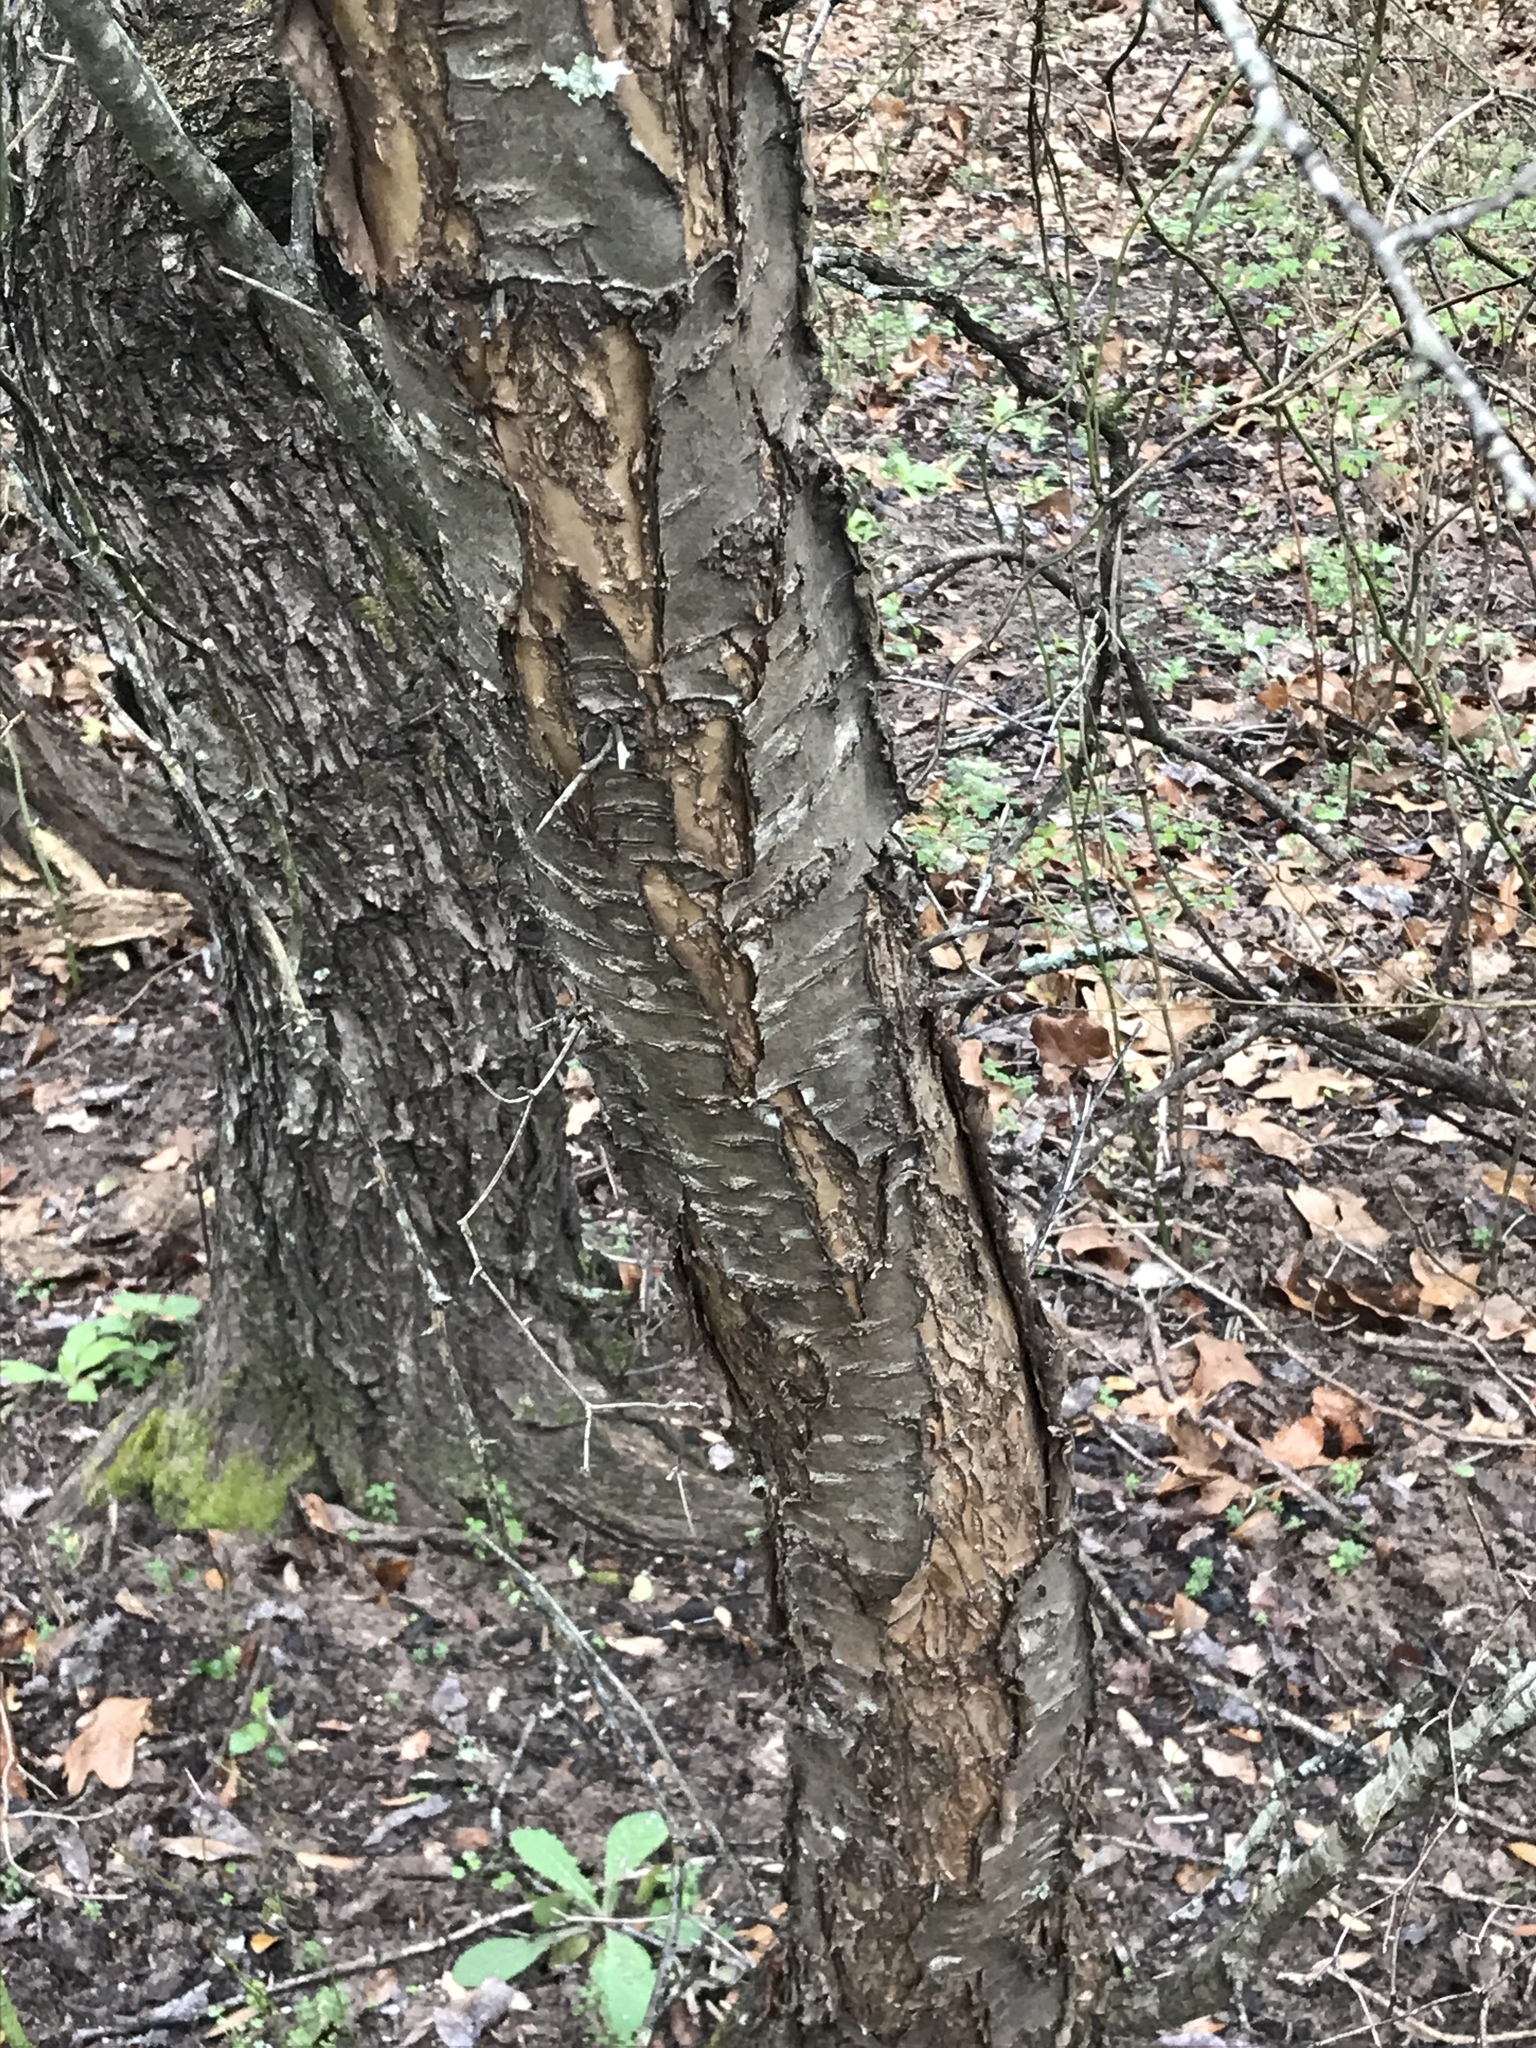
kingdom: Plantae
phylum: Tracheophyta
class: Magnoliopsida
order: Rosales
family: Rosaceae
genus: Prunus
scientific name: Prunus mexicana
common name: Mexican plum
